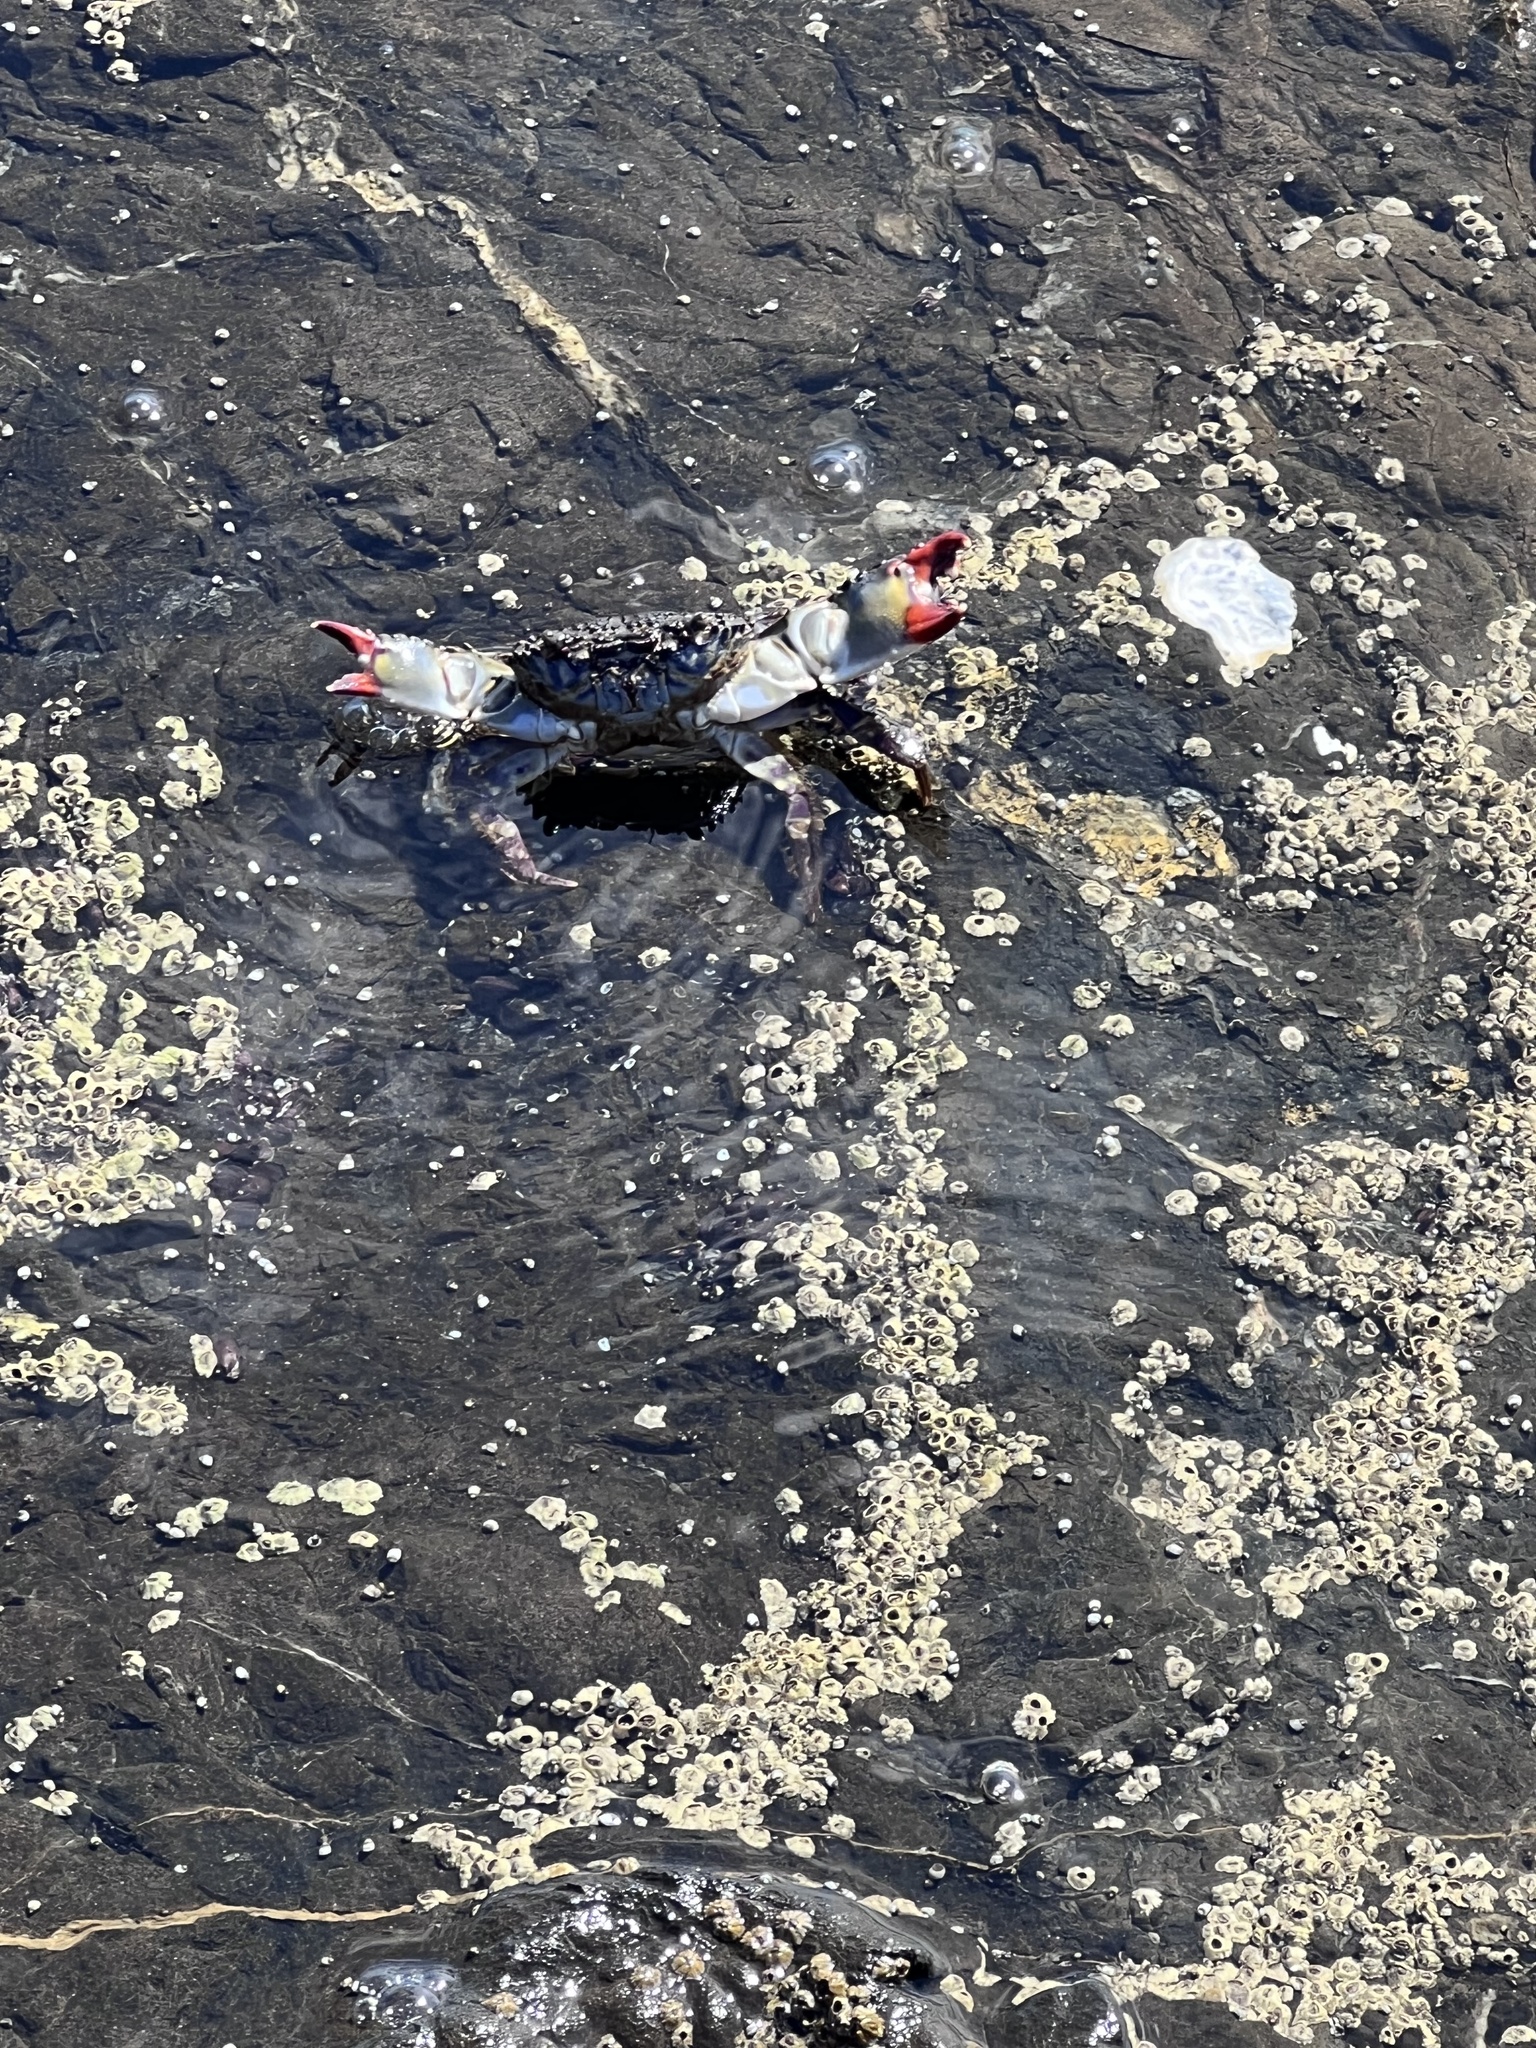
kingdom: Animalia
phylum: Arthropoda
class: Malacostraca
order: Decapoda
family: Eriphiidae
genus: Eriphia
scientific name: Eriphia squamata
